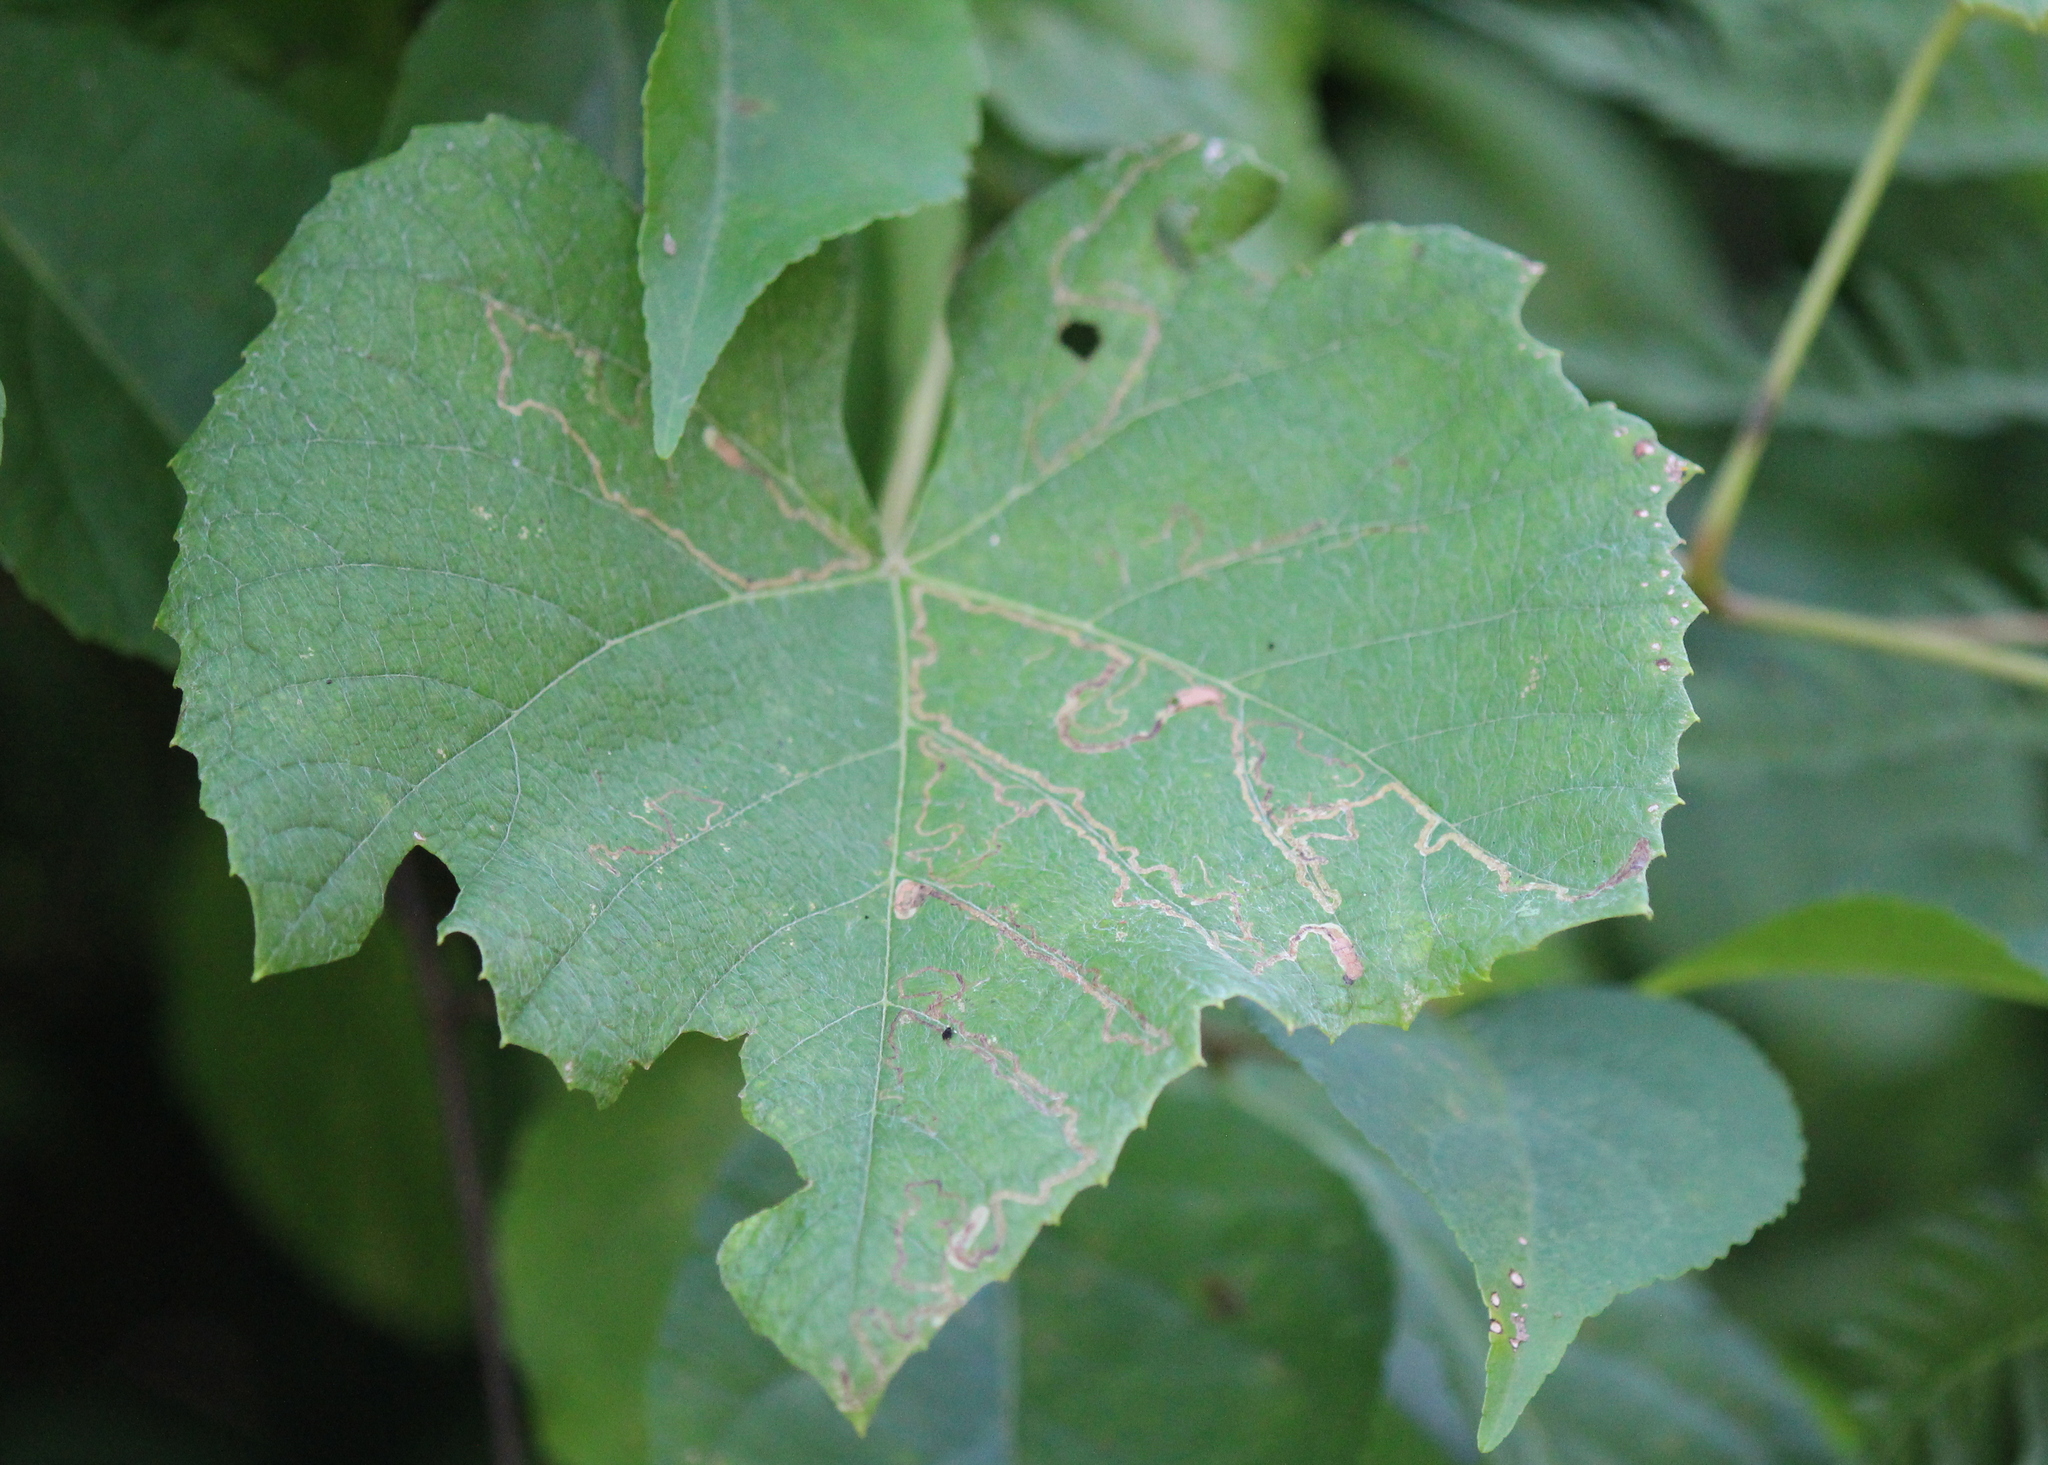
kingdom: Animalia
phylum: Arthropoda
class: Insecta
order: Lepidoptera
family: Gracillariidae
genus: Phyllocnistis
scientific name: Phyllocnistis vitifoliella
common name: Grape leaf-miner moth
